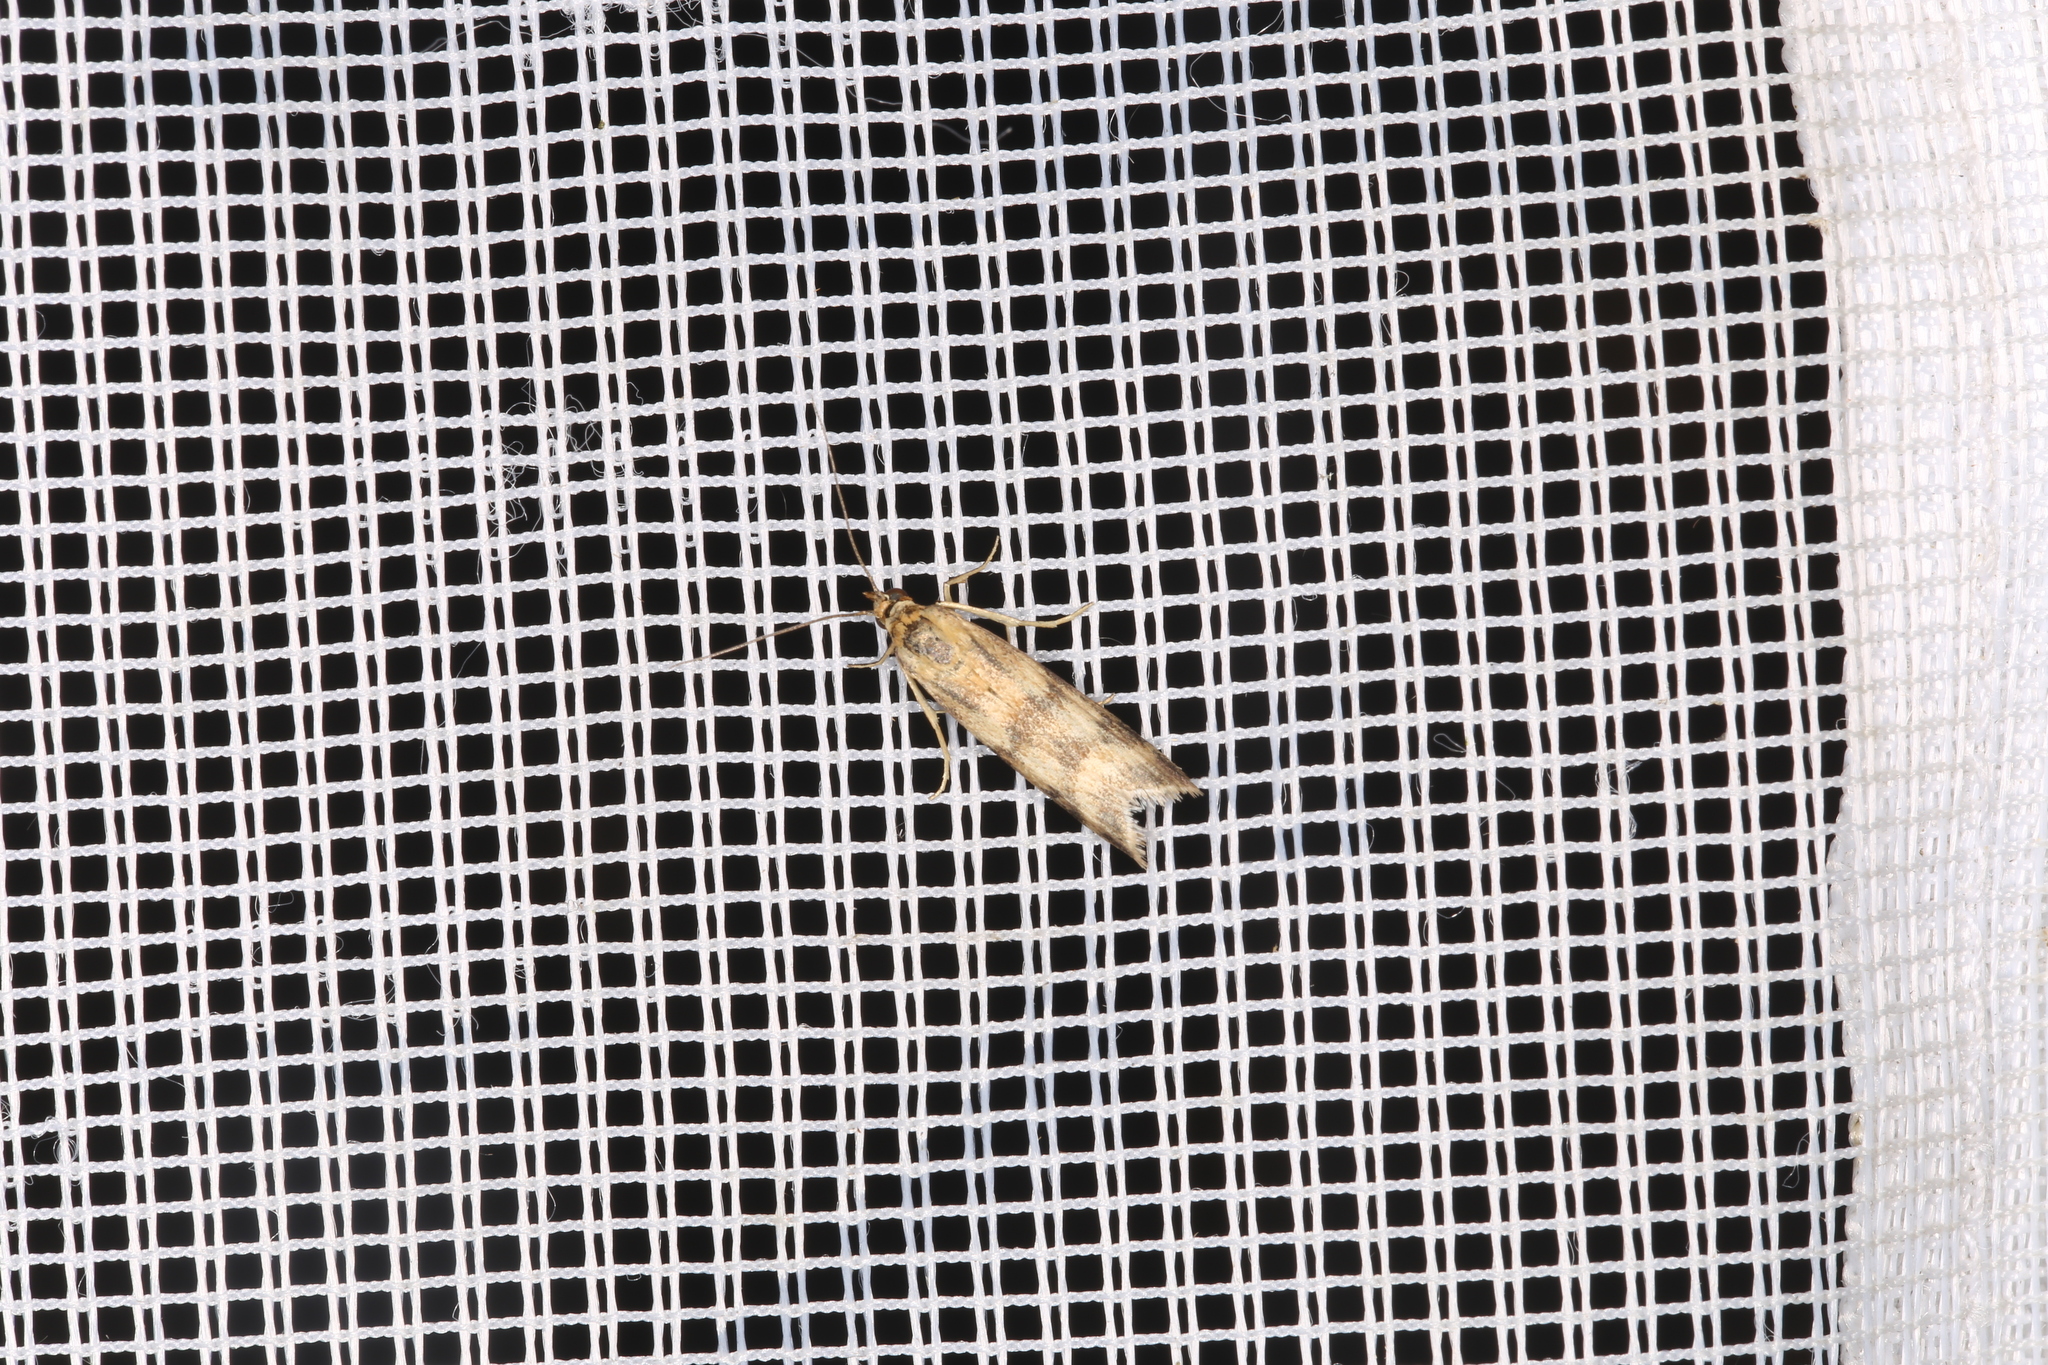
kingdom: Animalia
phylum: Arthropoda
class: Insecta
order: Lepidoptera
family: Pyralidae
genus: Homoeosoma
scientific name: Homoeosoma sinuella
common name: Twin-barred knot-horn
